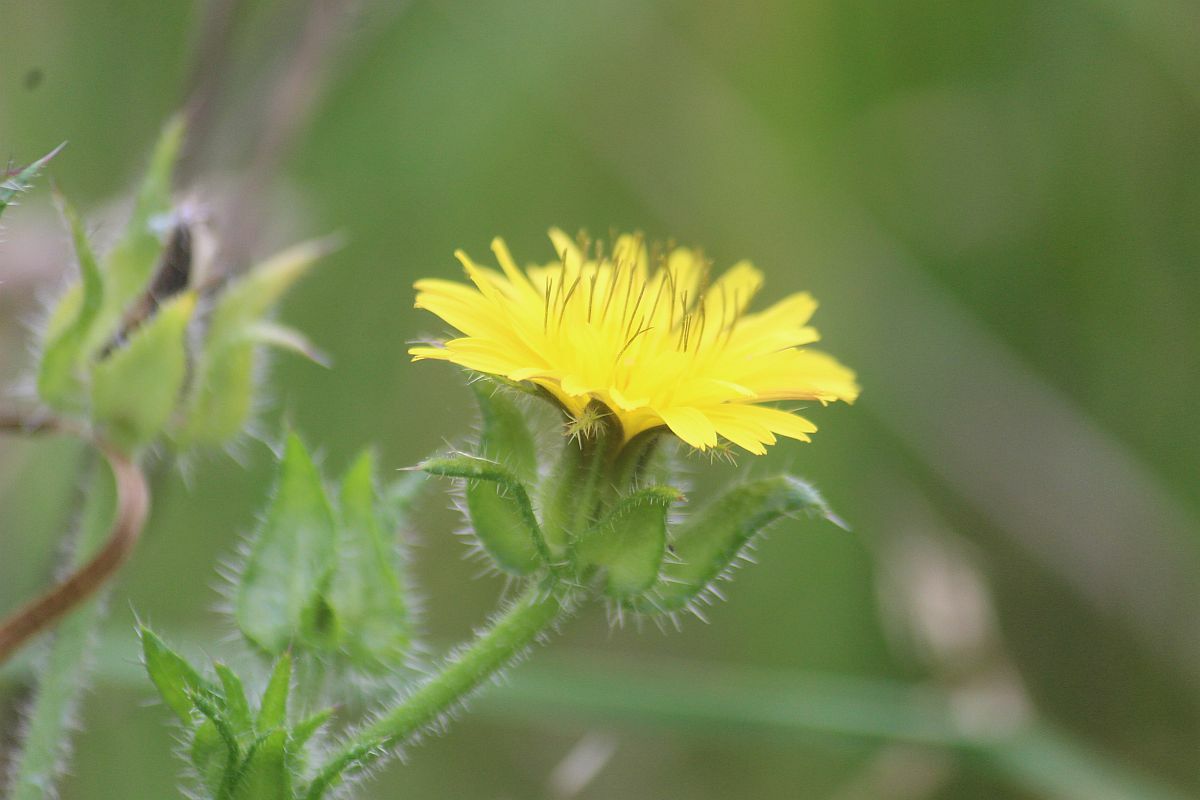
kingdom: Plantae
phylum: Tracheophyta
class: Magnoliopsida
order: Asterales
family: Asteraceae
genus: Helminthotheca
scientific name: Helminthotheca echioides
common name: Ox-tongue
